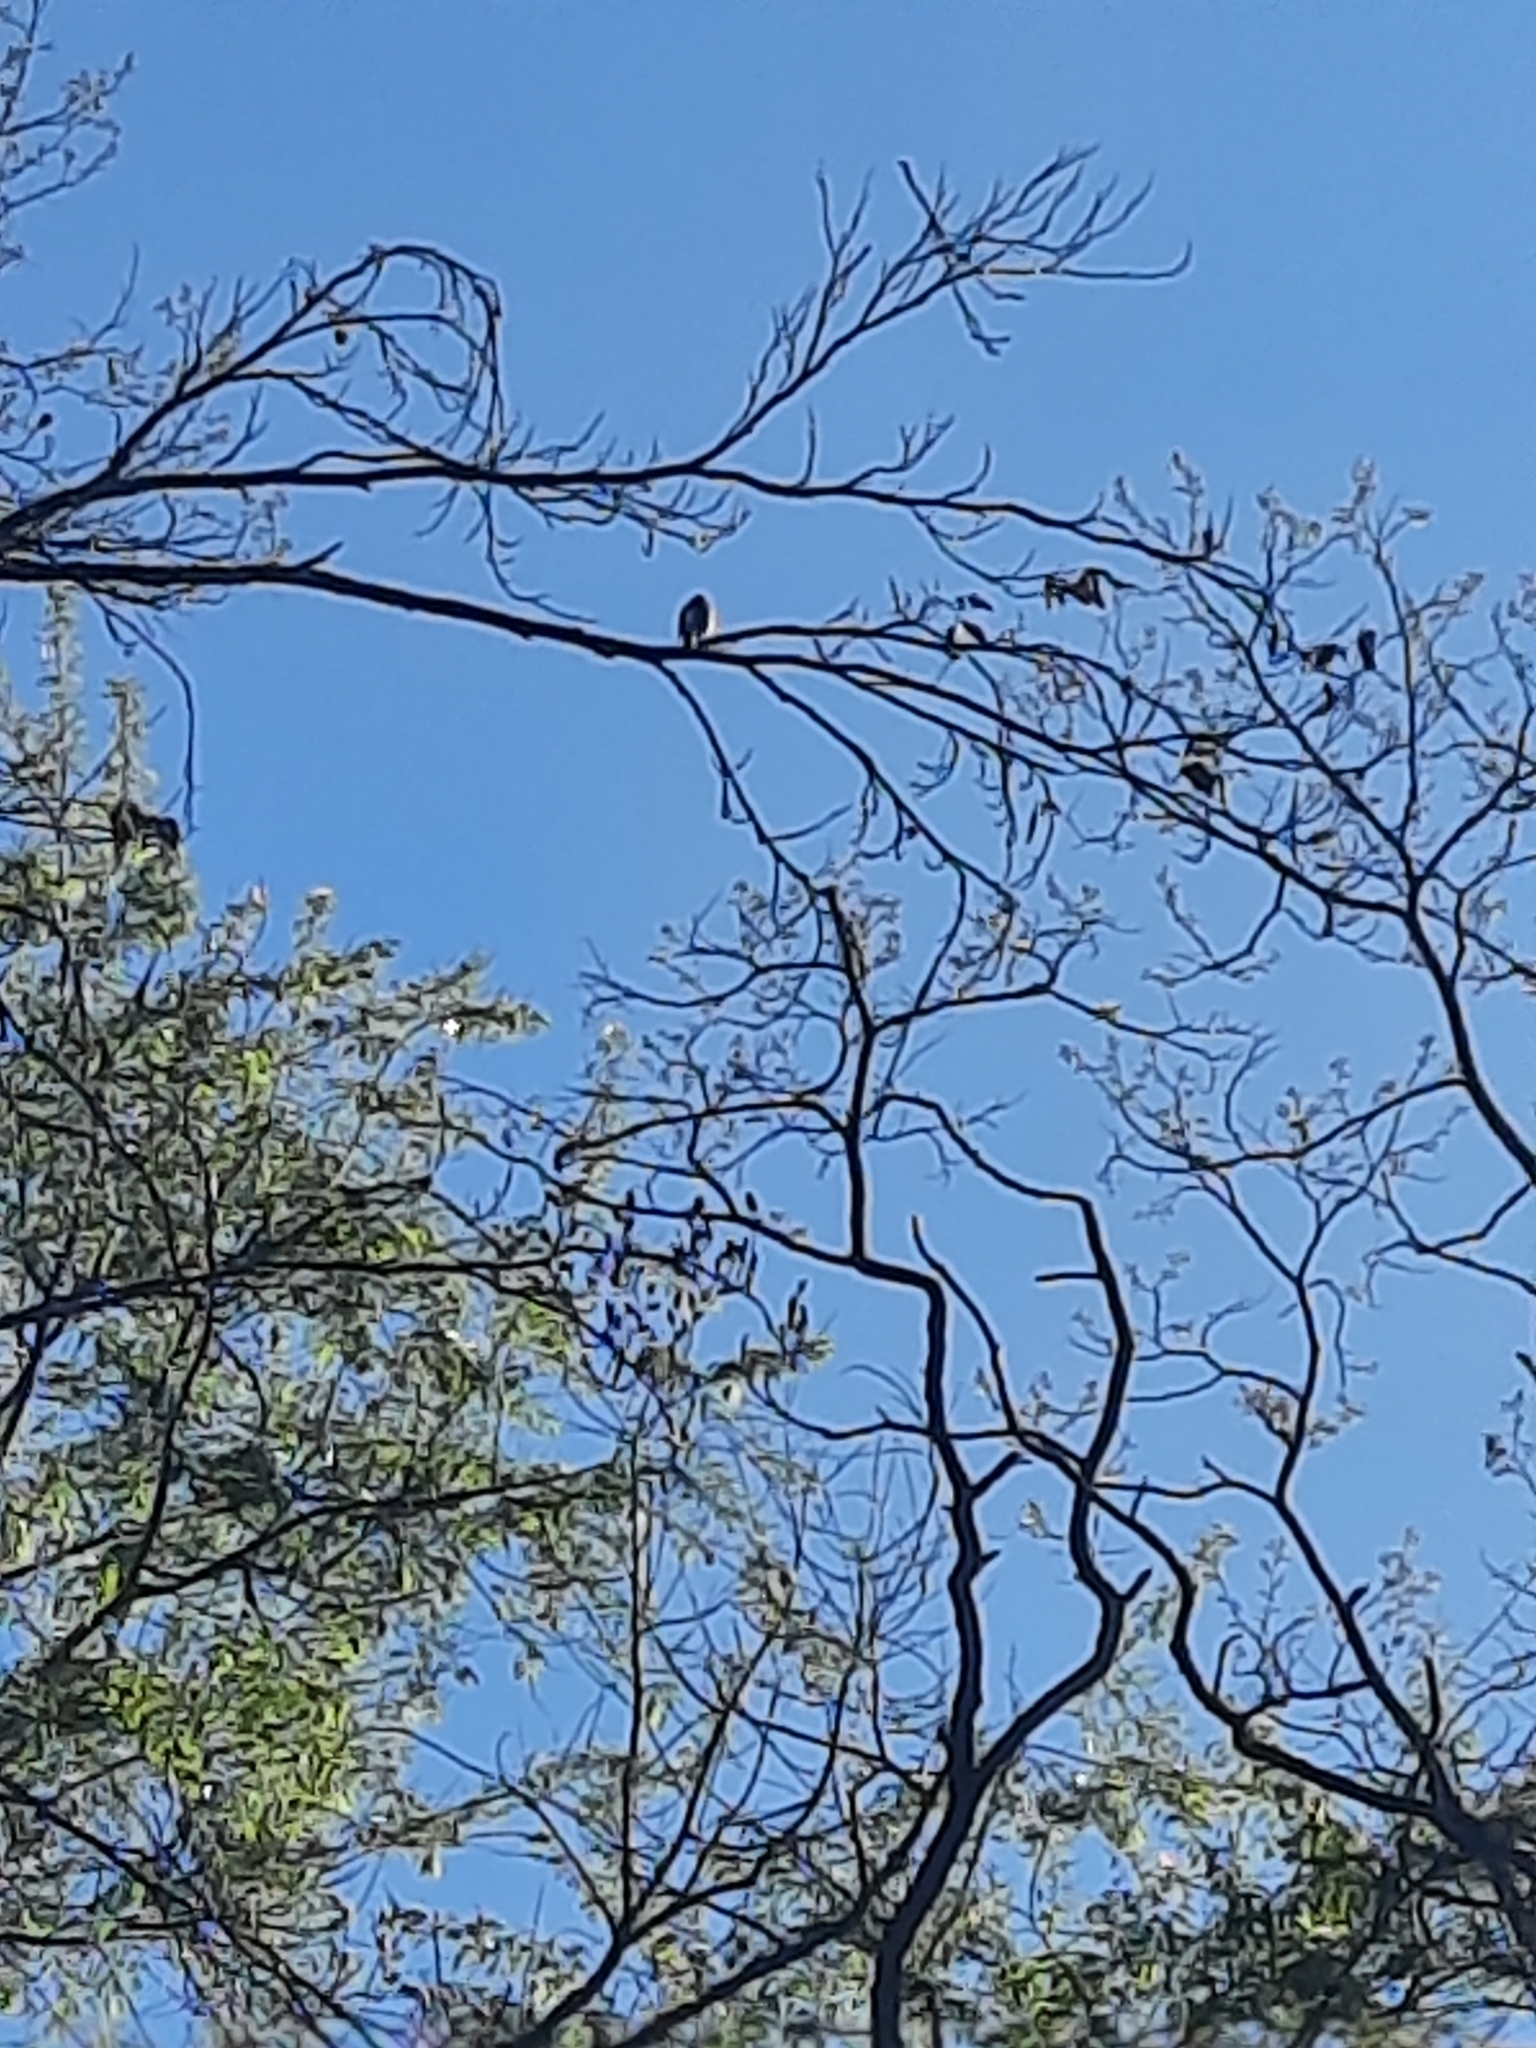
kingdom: Animalia
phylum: Chordata
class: Aves
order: Passeriformes
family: Cardinalidae
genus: Pheucticus
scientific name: Pheucticus ludovicianus
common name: Rose-breasted grosbeak
